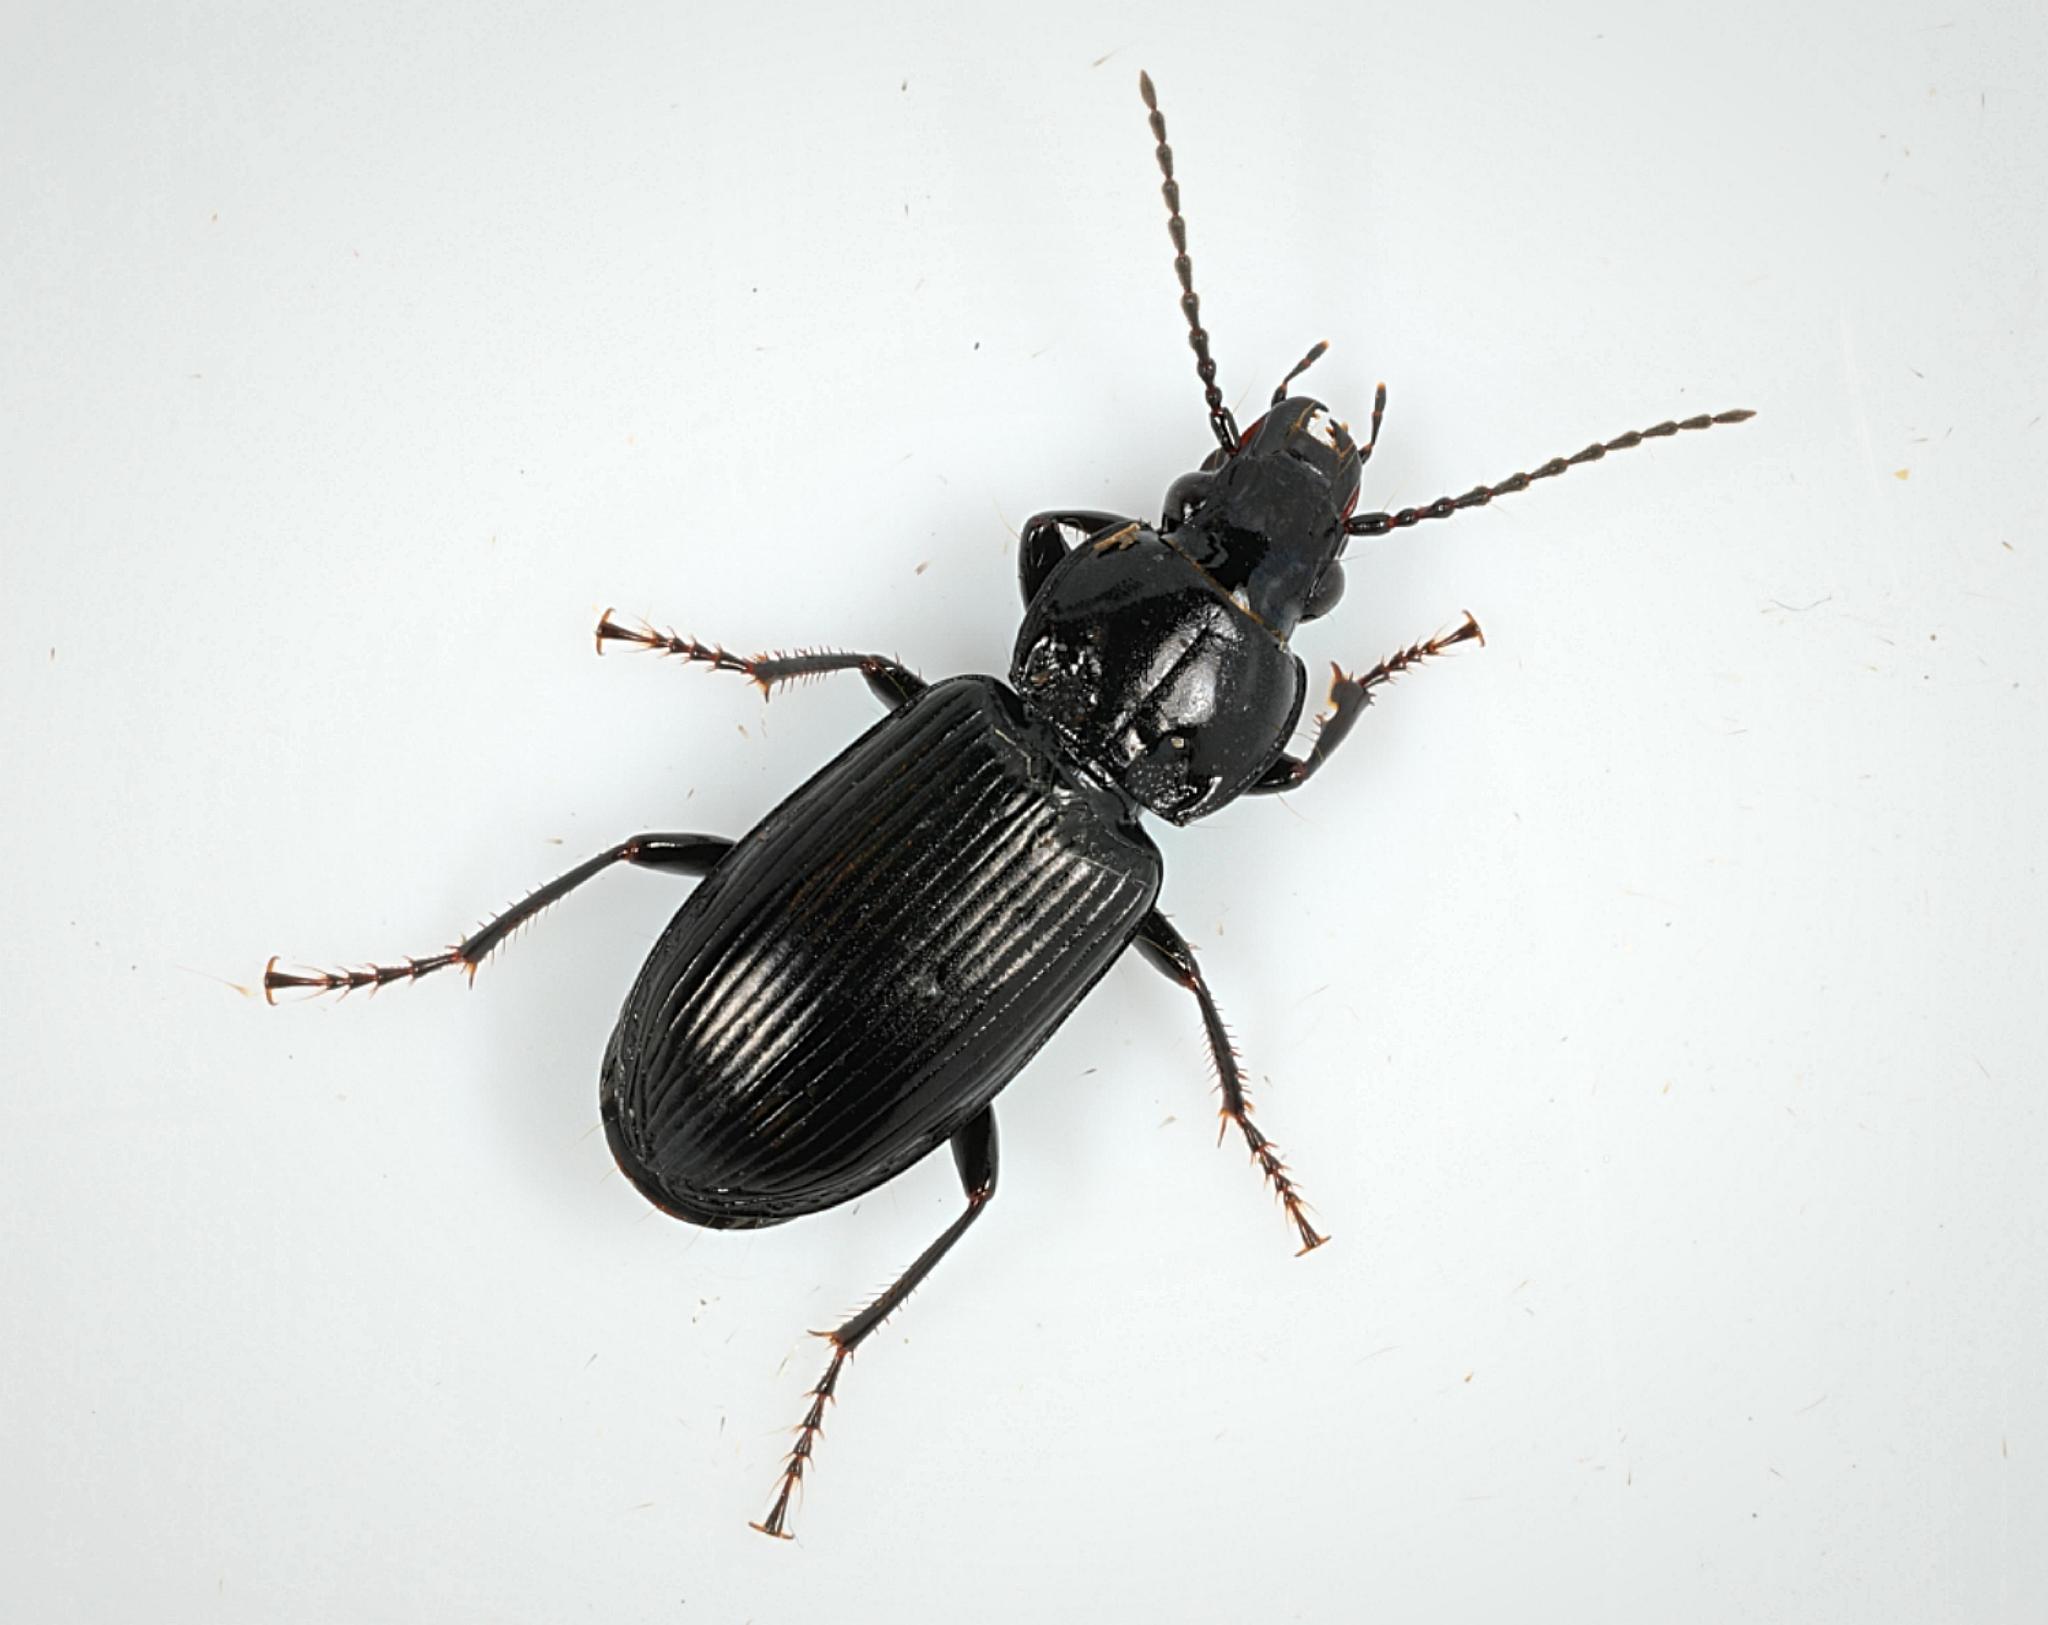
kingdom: Animalia
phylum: Arthropoda
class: Insecta
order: Coleoptera
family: Carabidae
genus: Pterostichus
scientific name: Pterostichus melanarius
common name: European dark harp ground beetle
